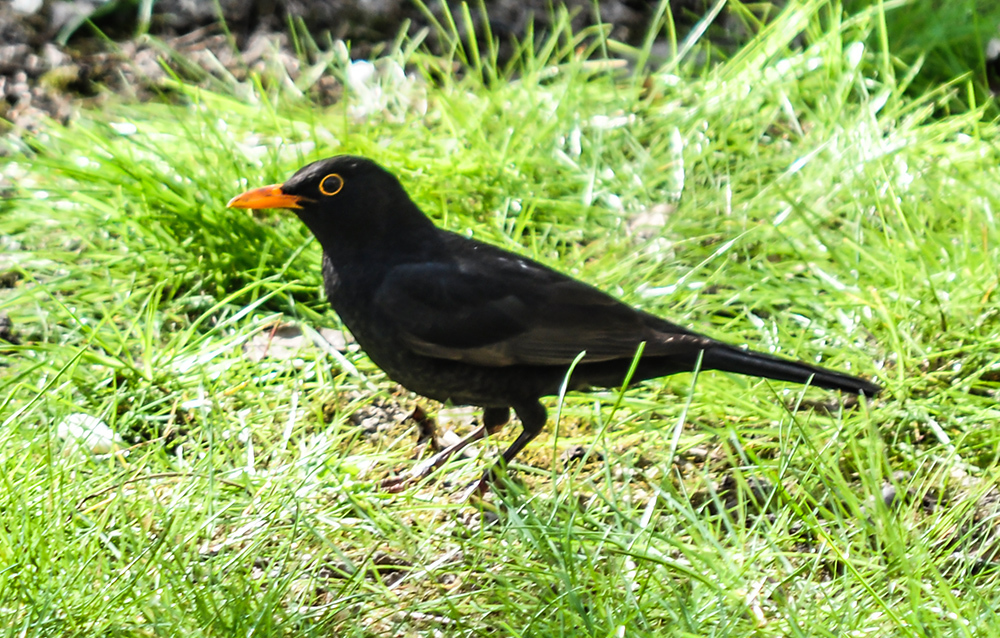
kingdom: Animalia
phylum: Chordata
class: Aves
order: Passeriformes
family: Turdidae
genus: Turdus
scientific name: Turdus merula
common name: Common blackbird
